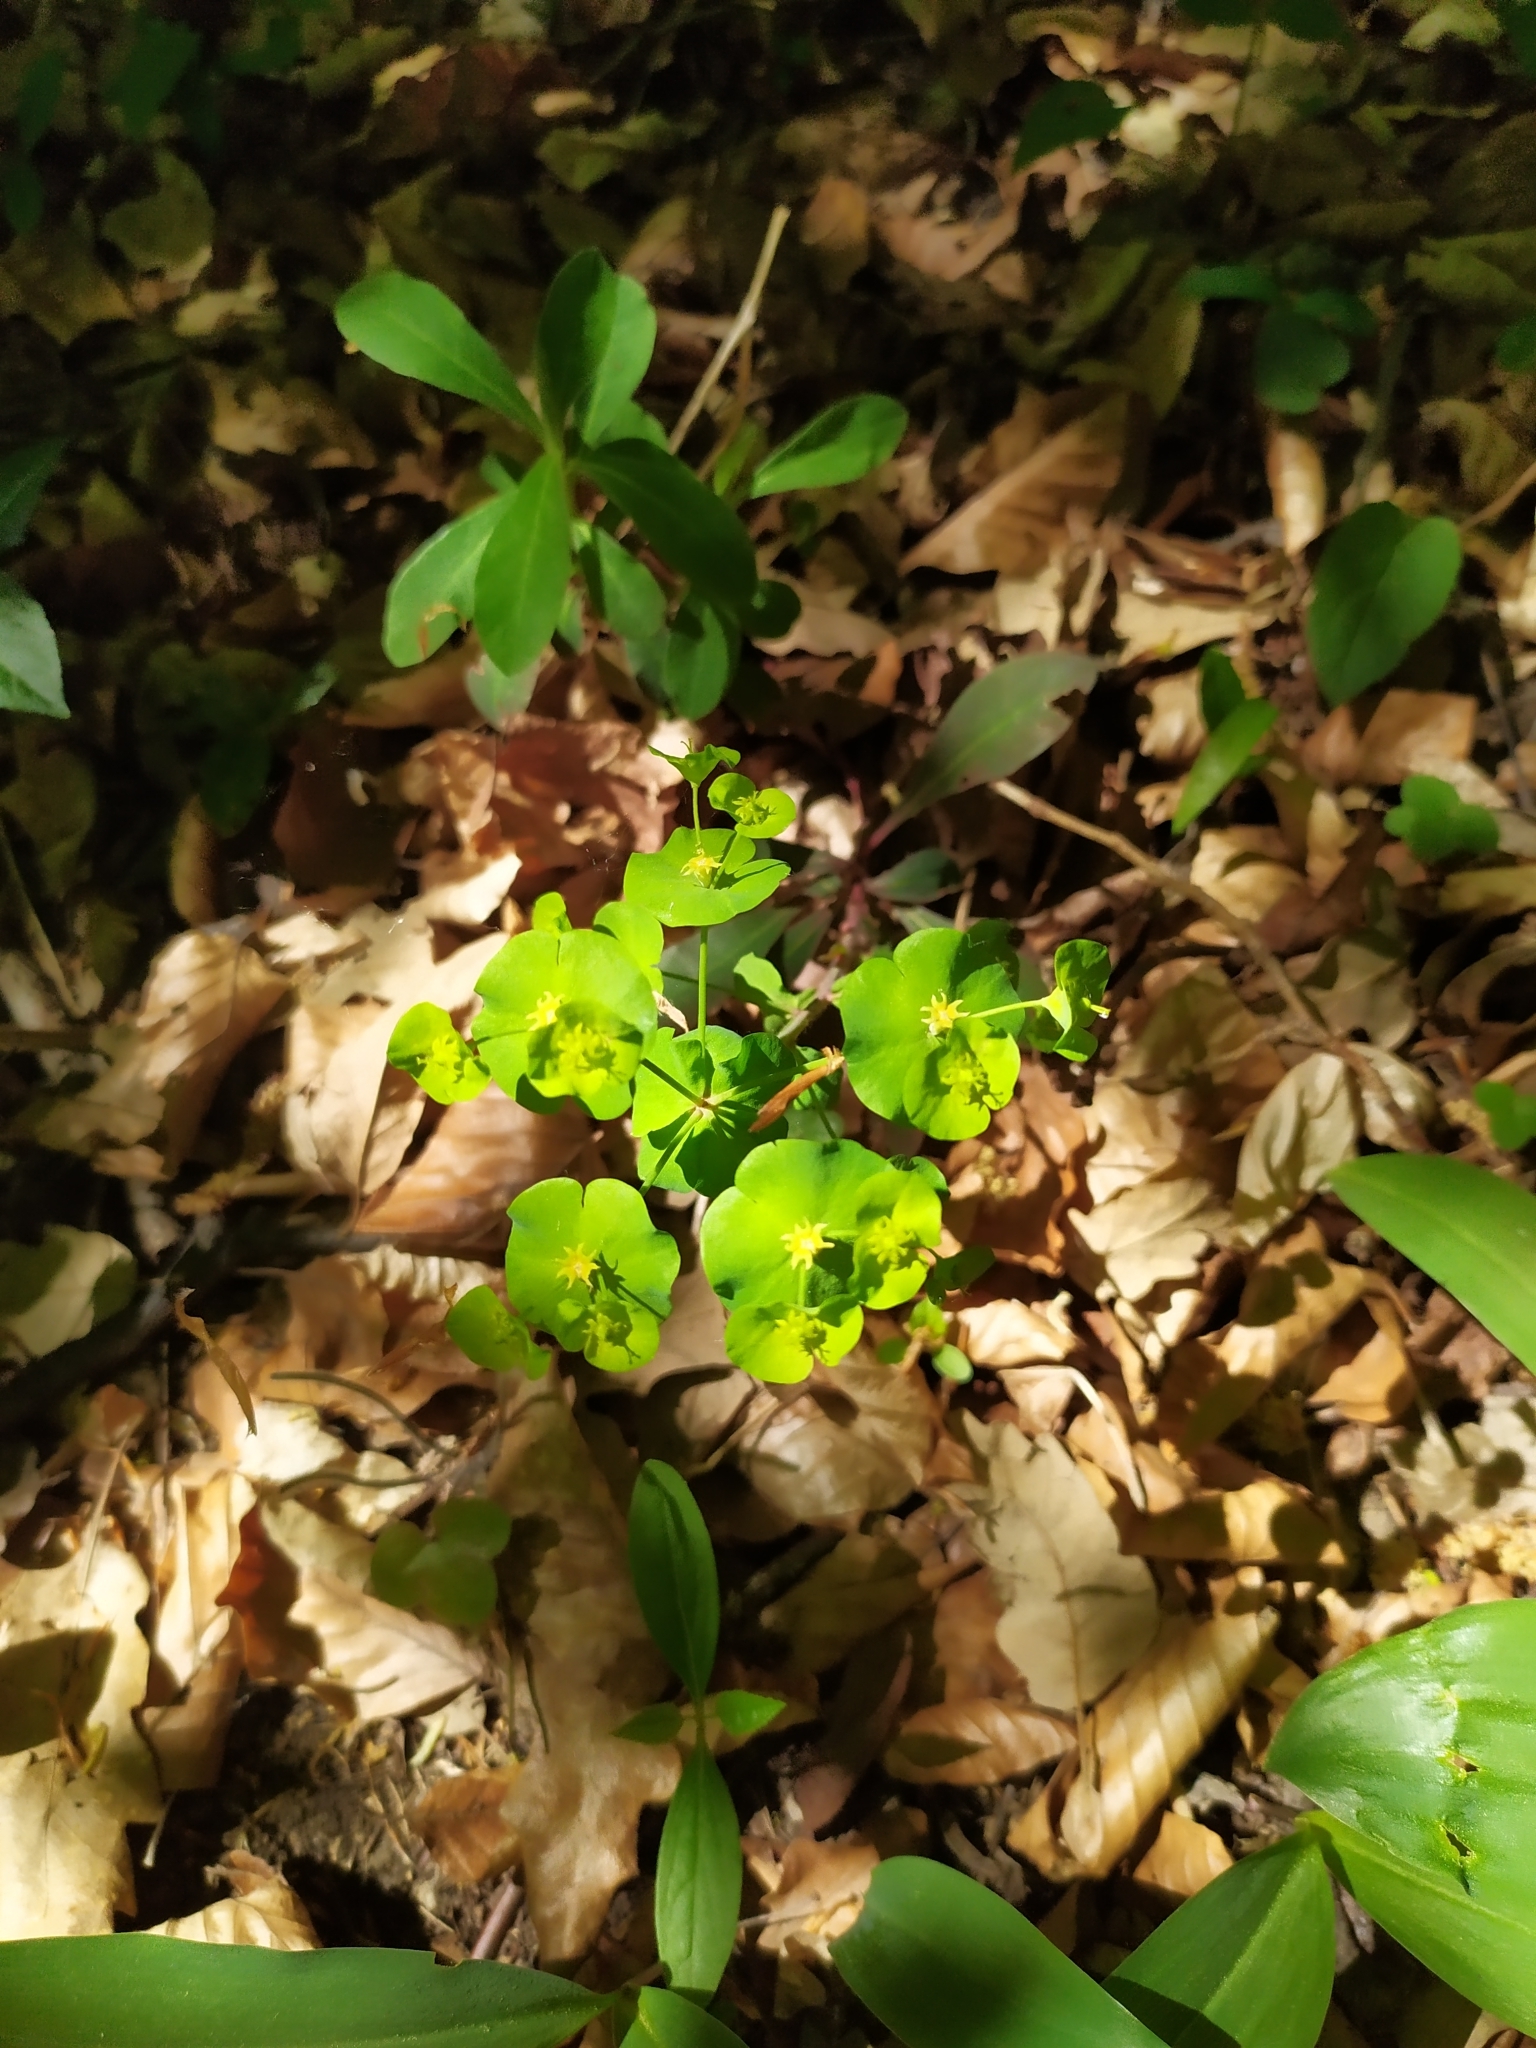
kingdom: Plantae
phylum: Tracheophyta
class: Magnoliopsida
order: Malpighiales
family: Euphorbiaceae
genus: Euphorbia
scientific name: Euphorbia amygdaloides
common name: Wood spurge
